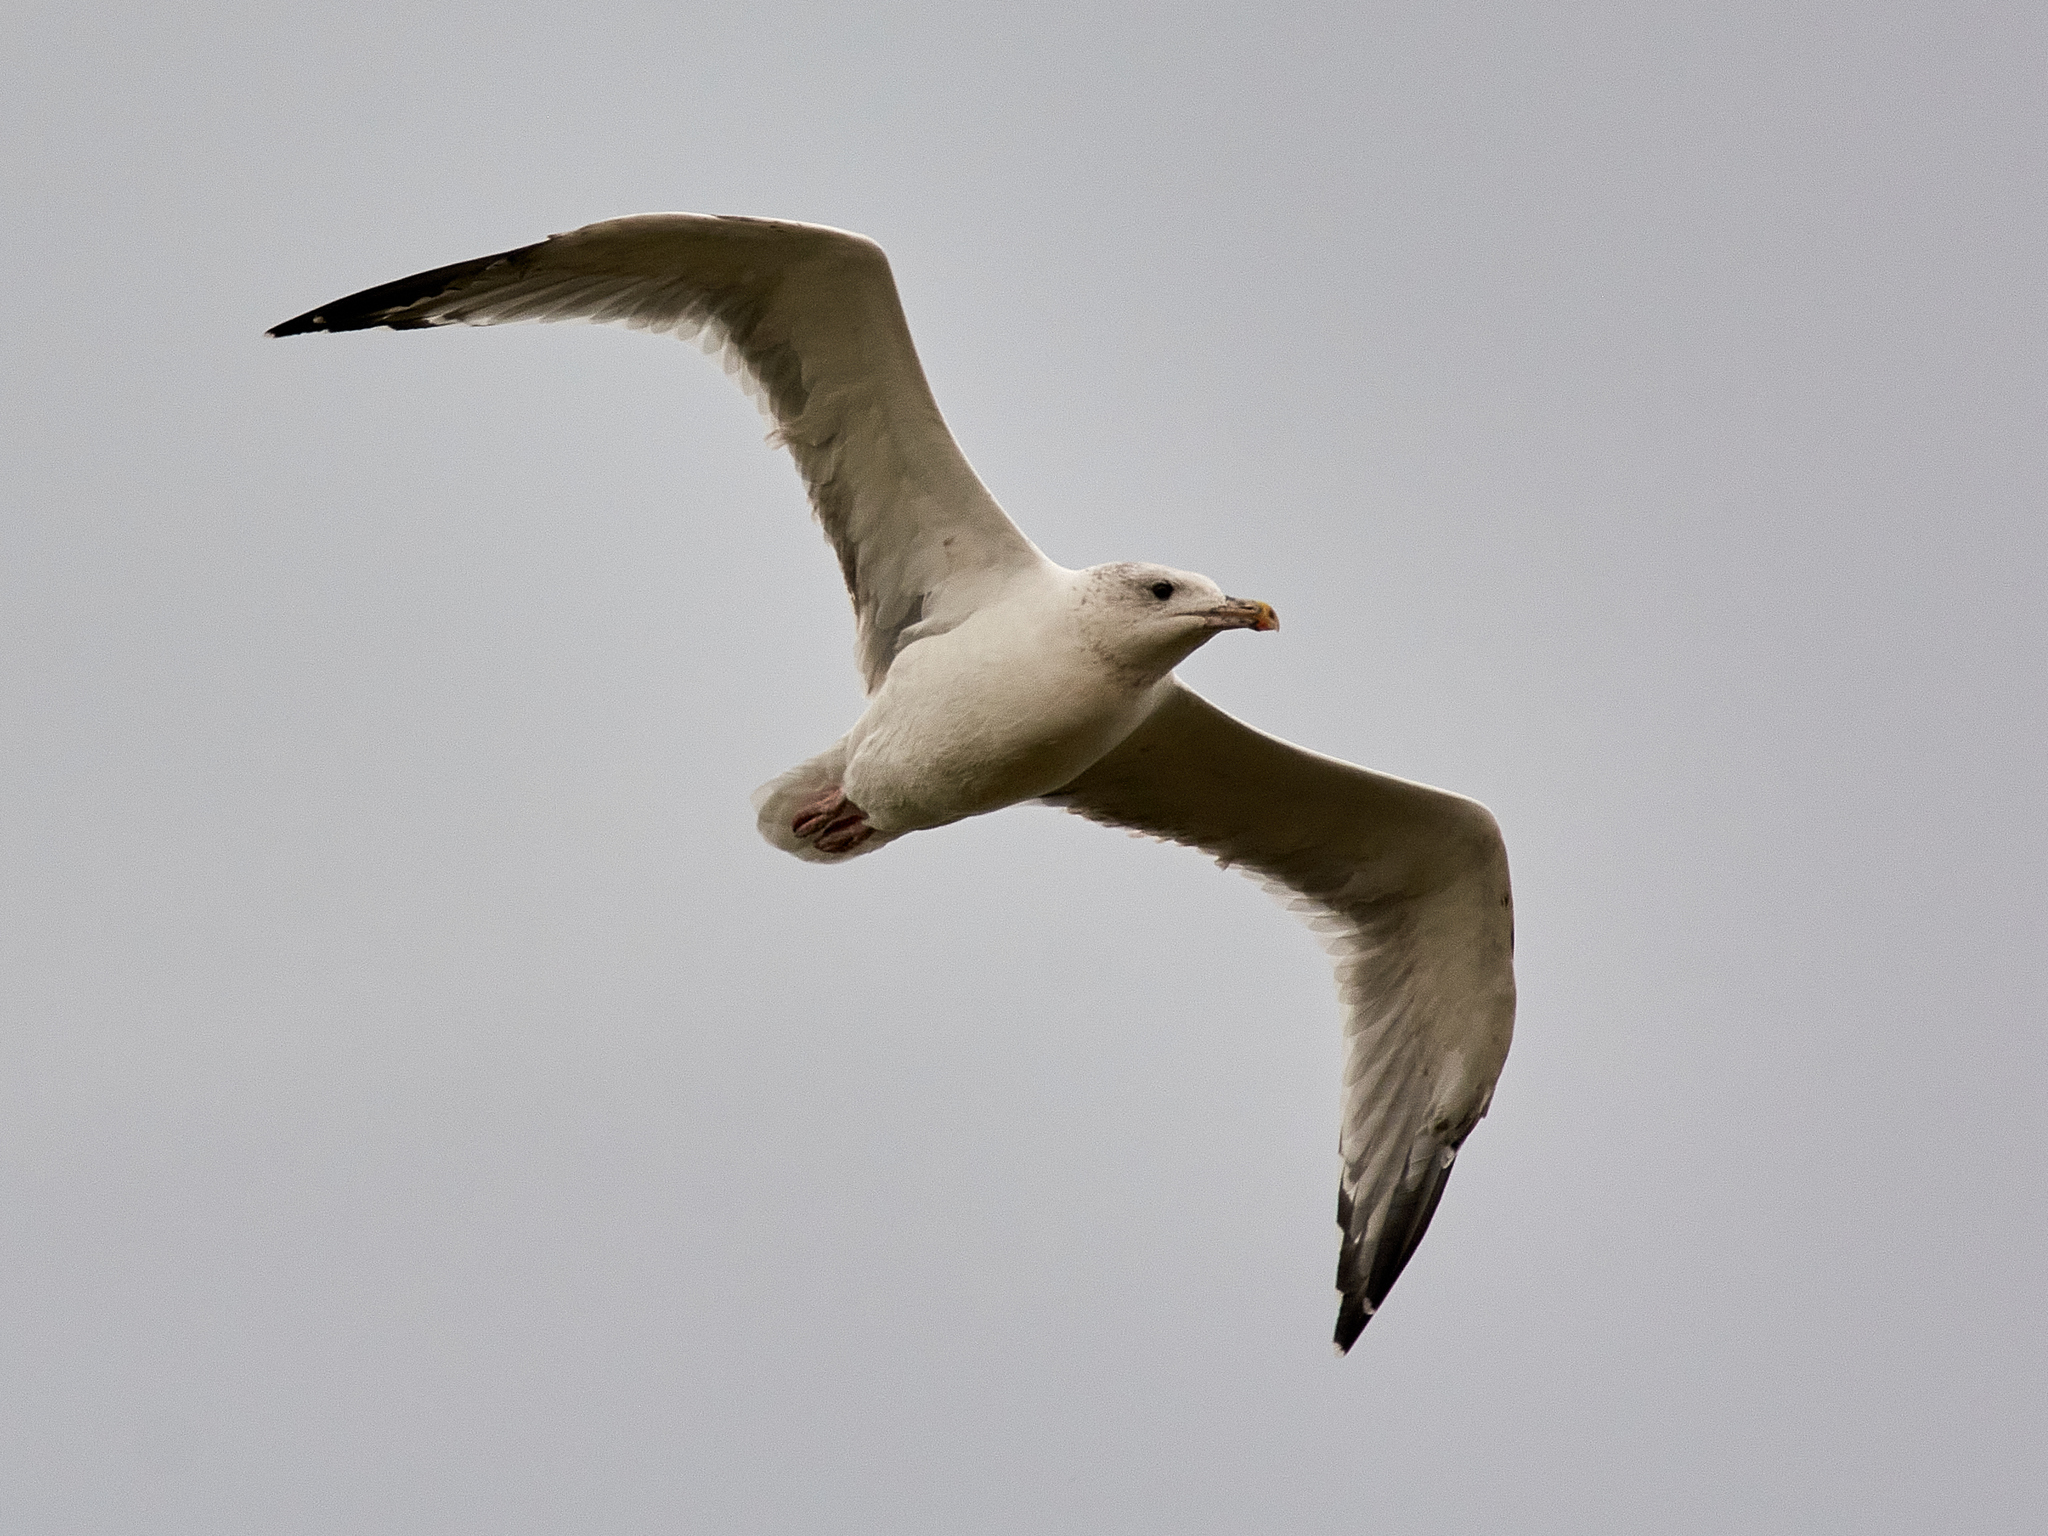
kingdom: Animalia
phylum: Chordata
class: Aves
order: Charadriiformes
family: Laridae
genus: Larus
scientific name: Larus cachinnans
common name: Caspian gull
